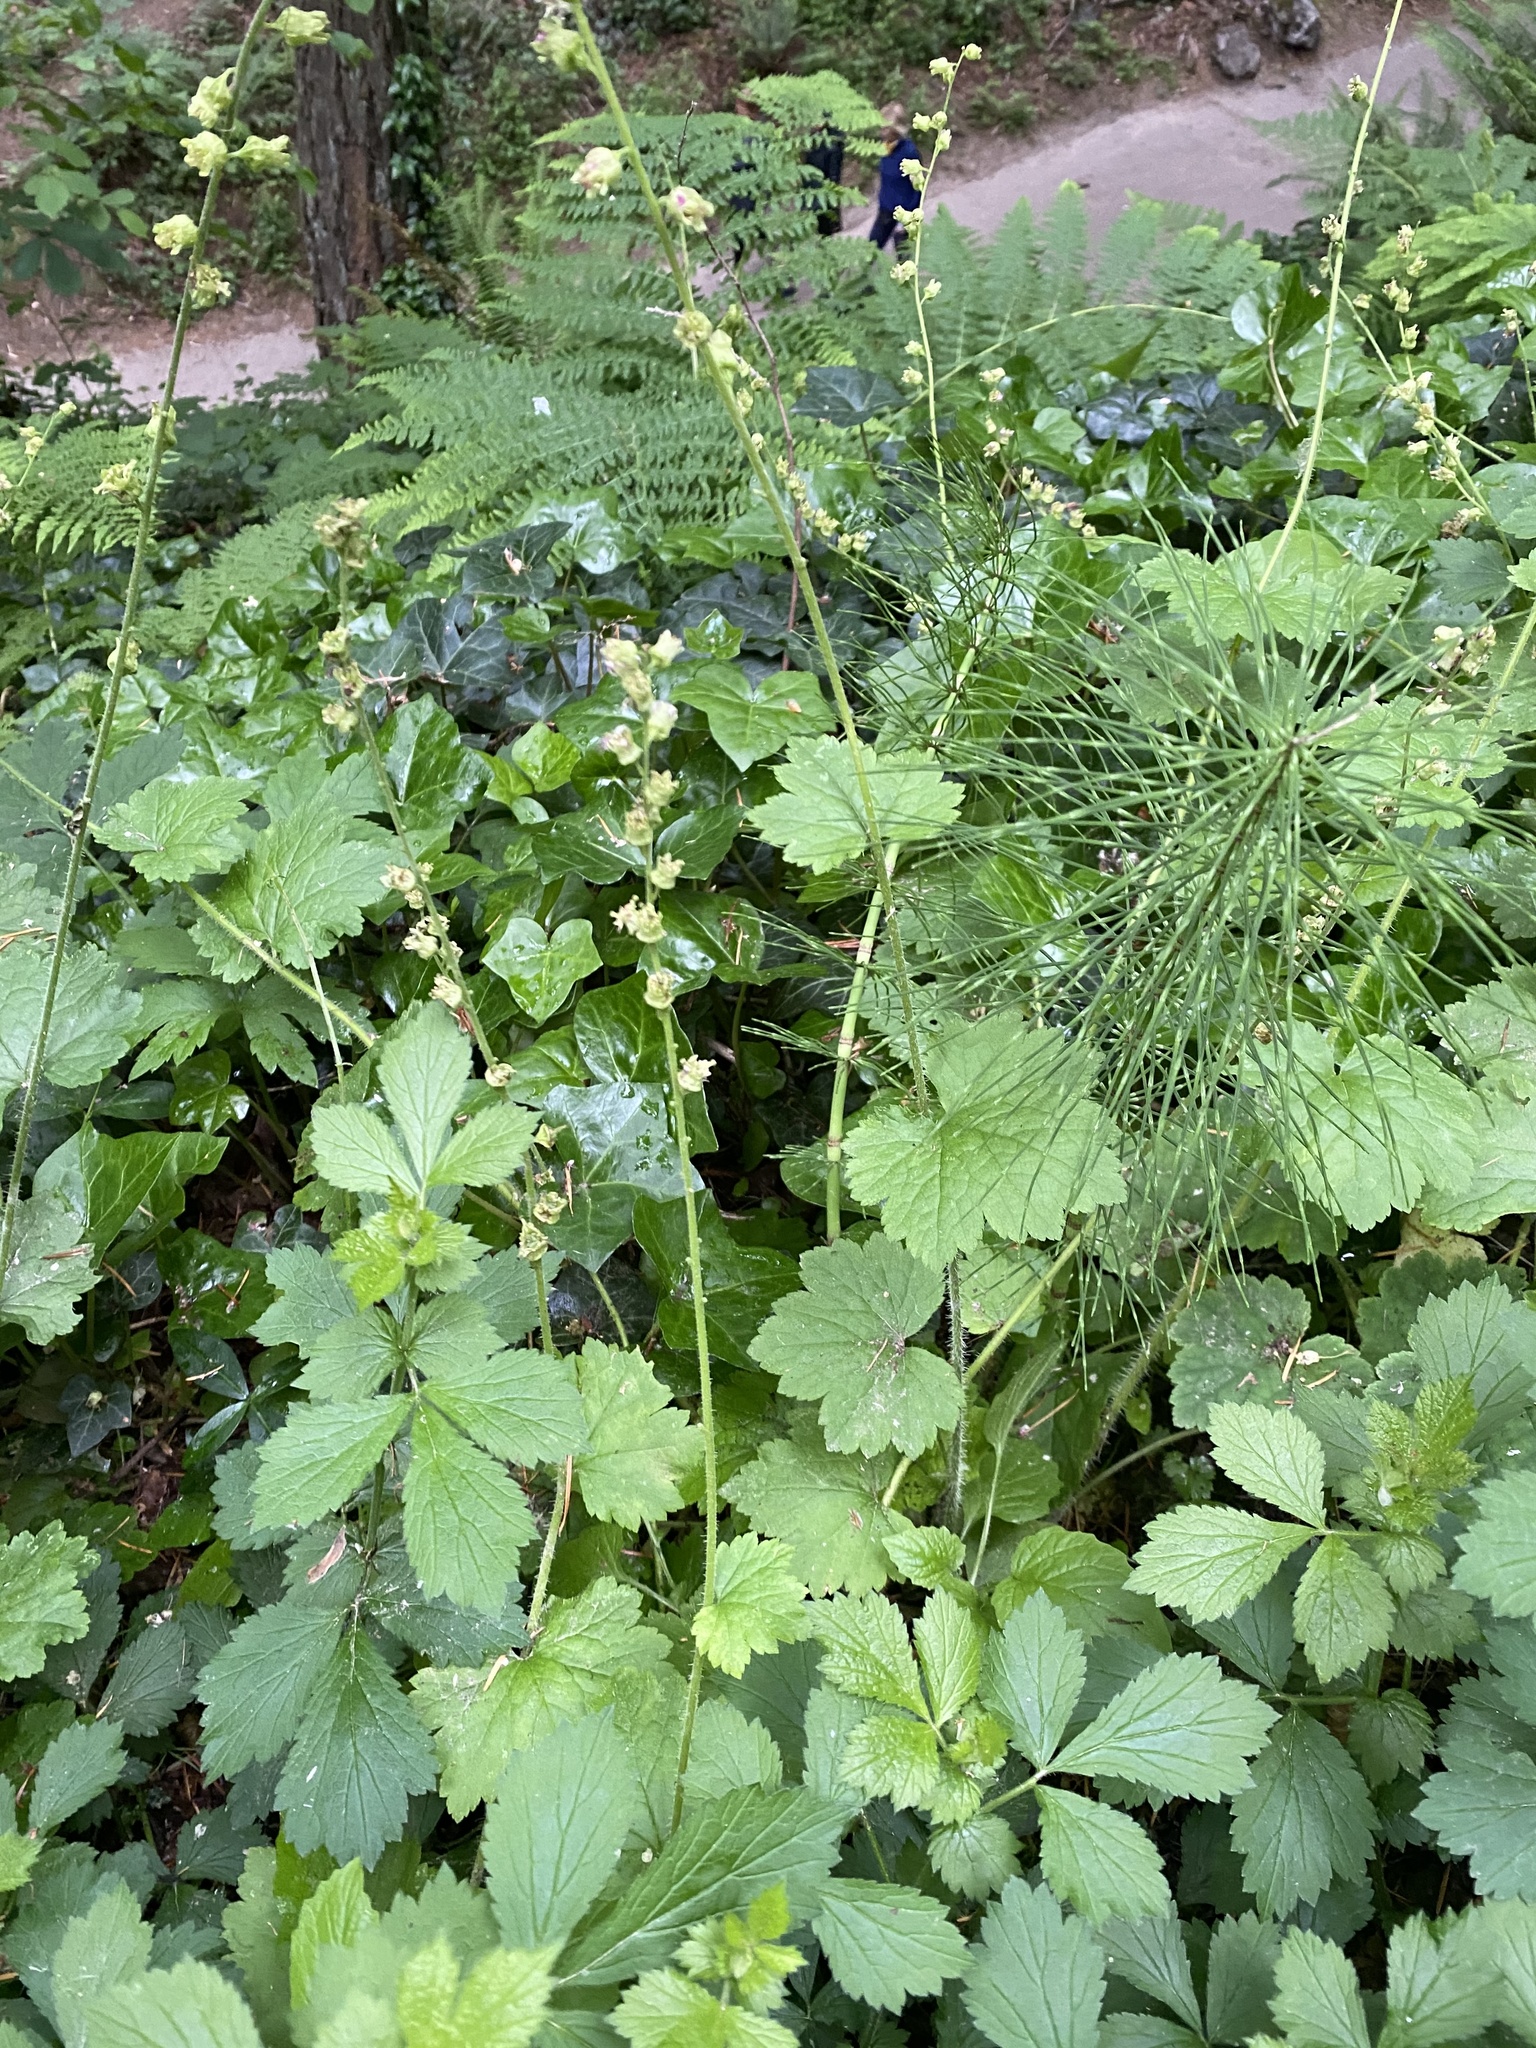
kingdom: Plantae
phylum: Tracheophyta
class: Magnoliopsida
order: Saxifragales
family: Saxifragaceae
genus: Tellima
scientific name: Tellima grandiflora
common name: Fringecups
